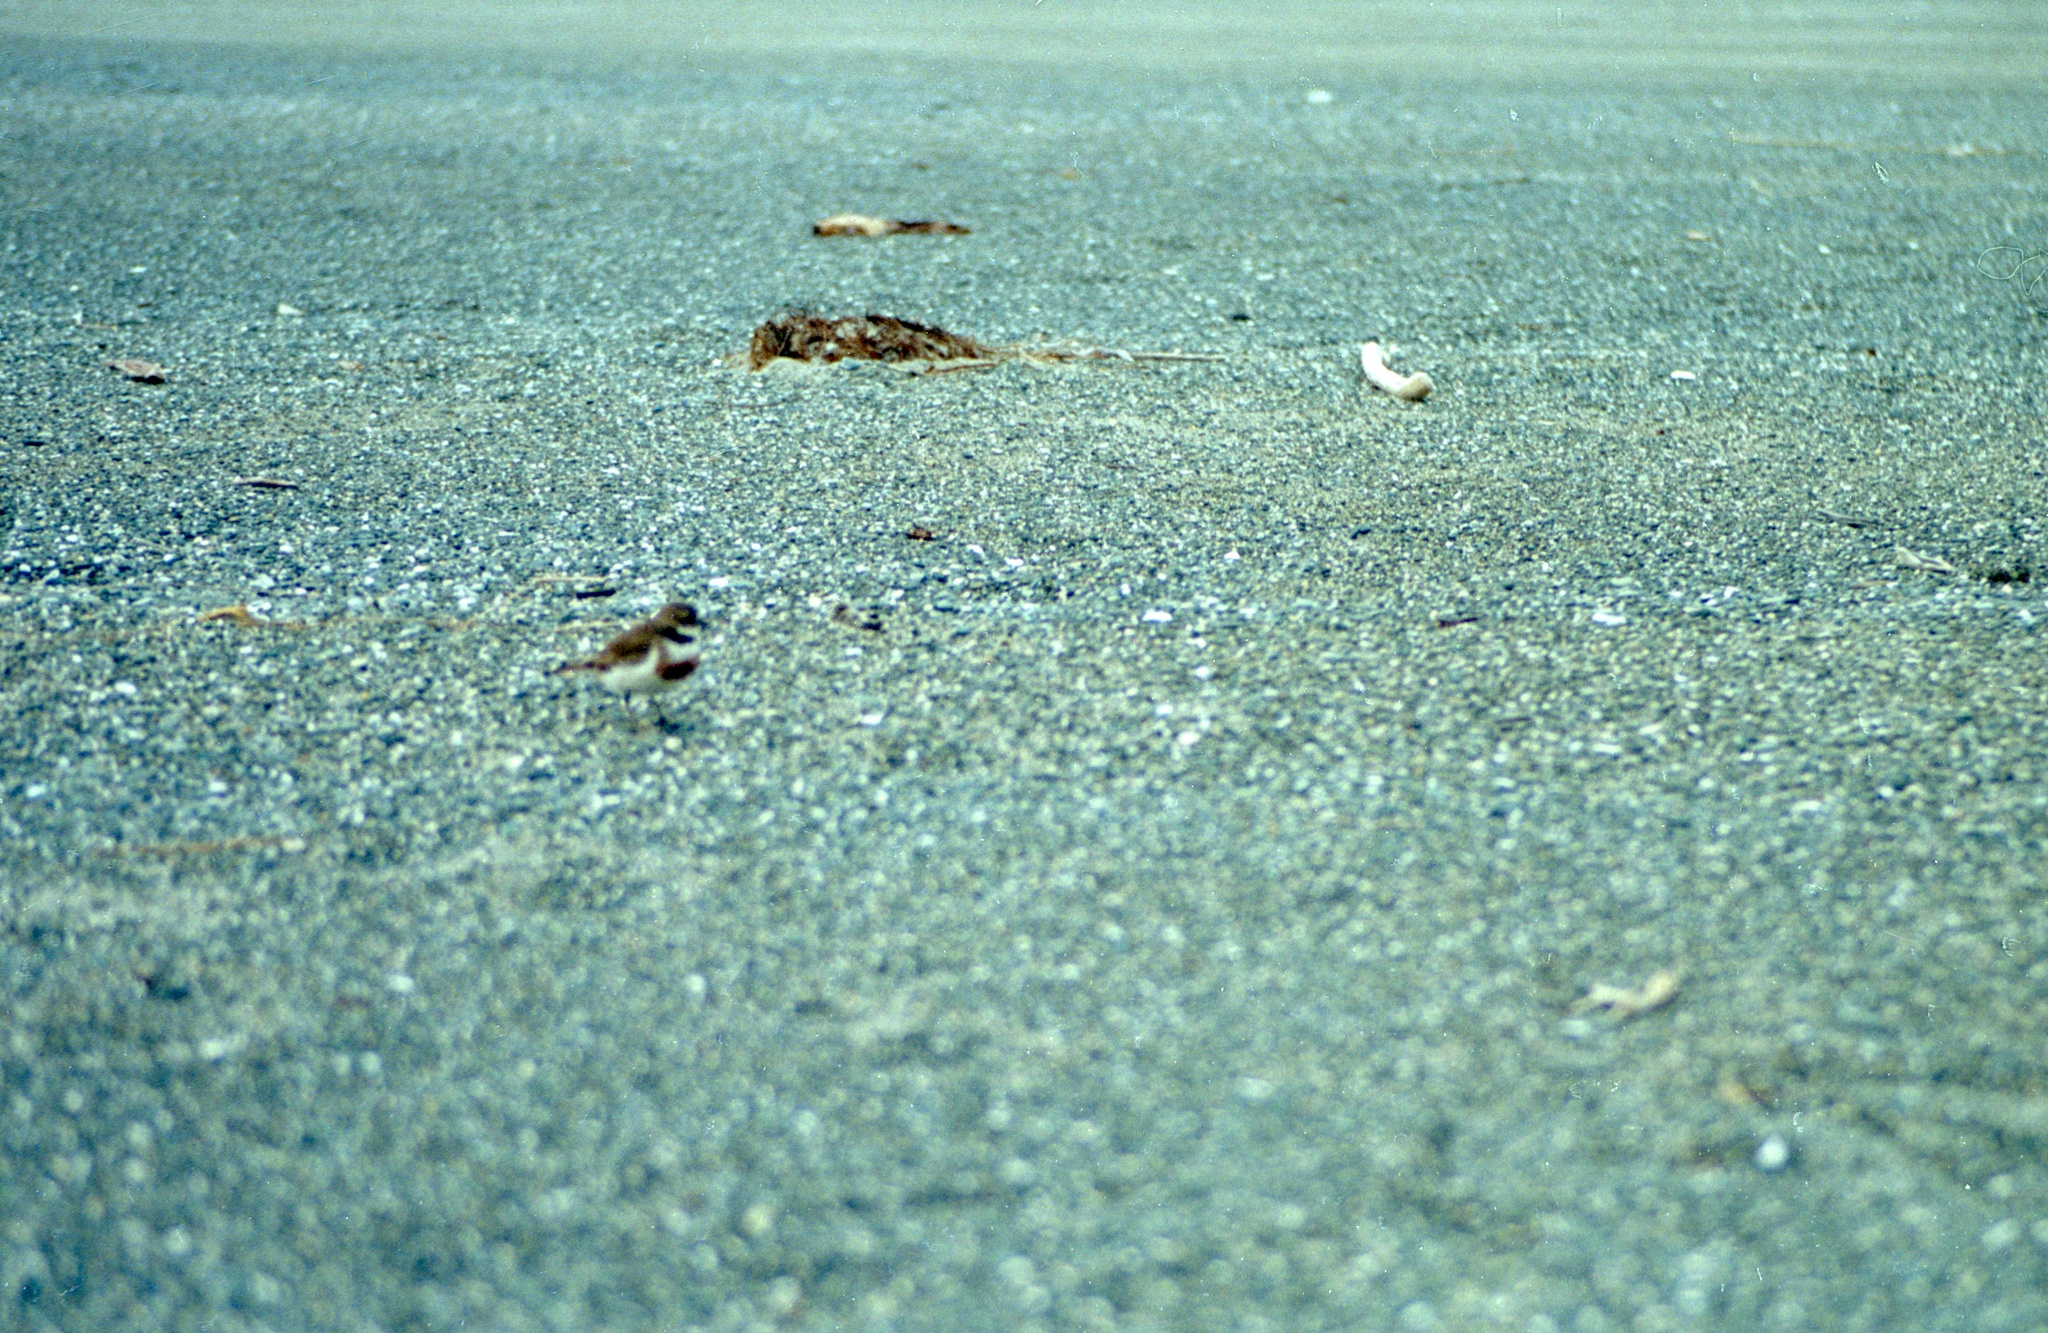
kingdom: Animalia
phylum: Chordata
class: Aves
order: Charadriiformes
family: Charadriidae
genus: Anarhynchus
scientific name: Anarhynchus
